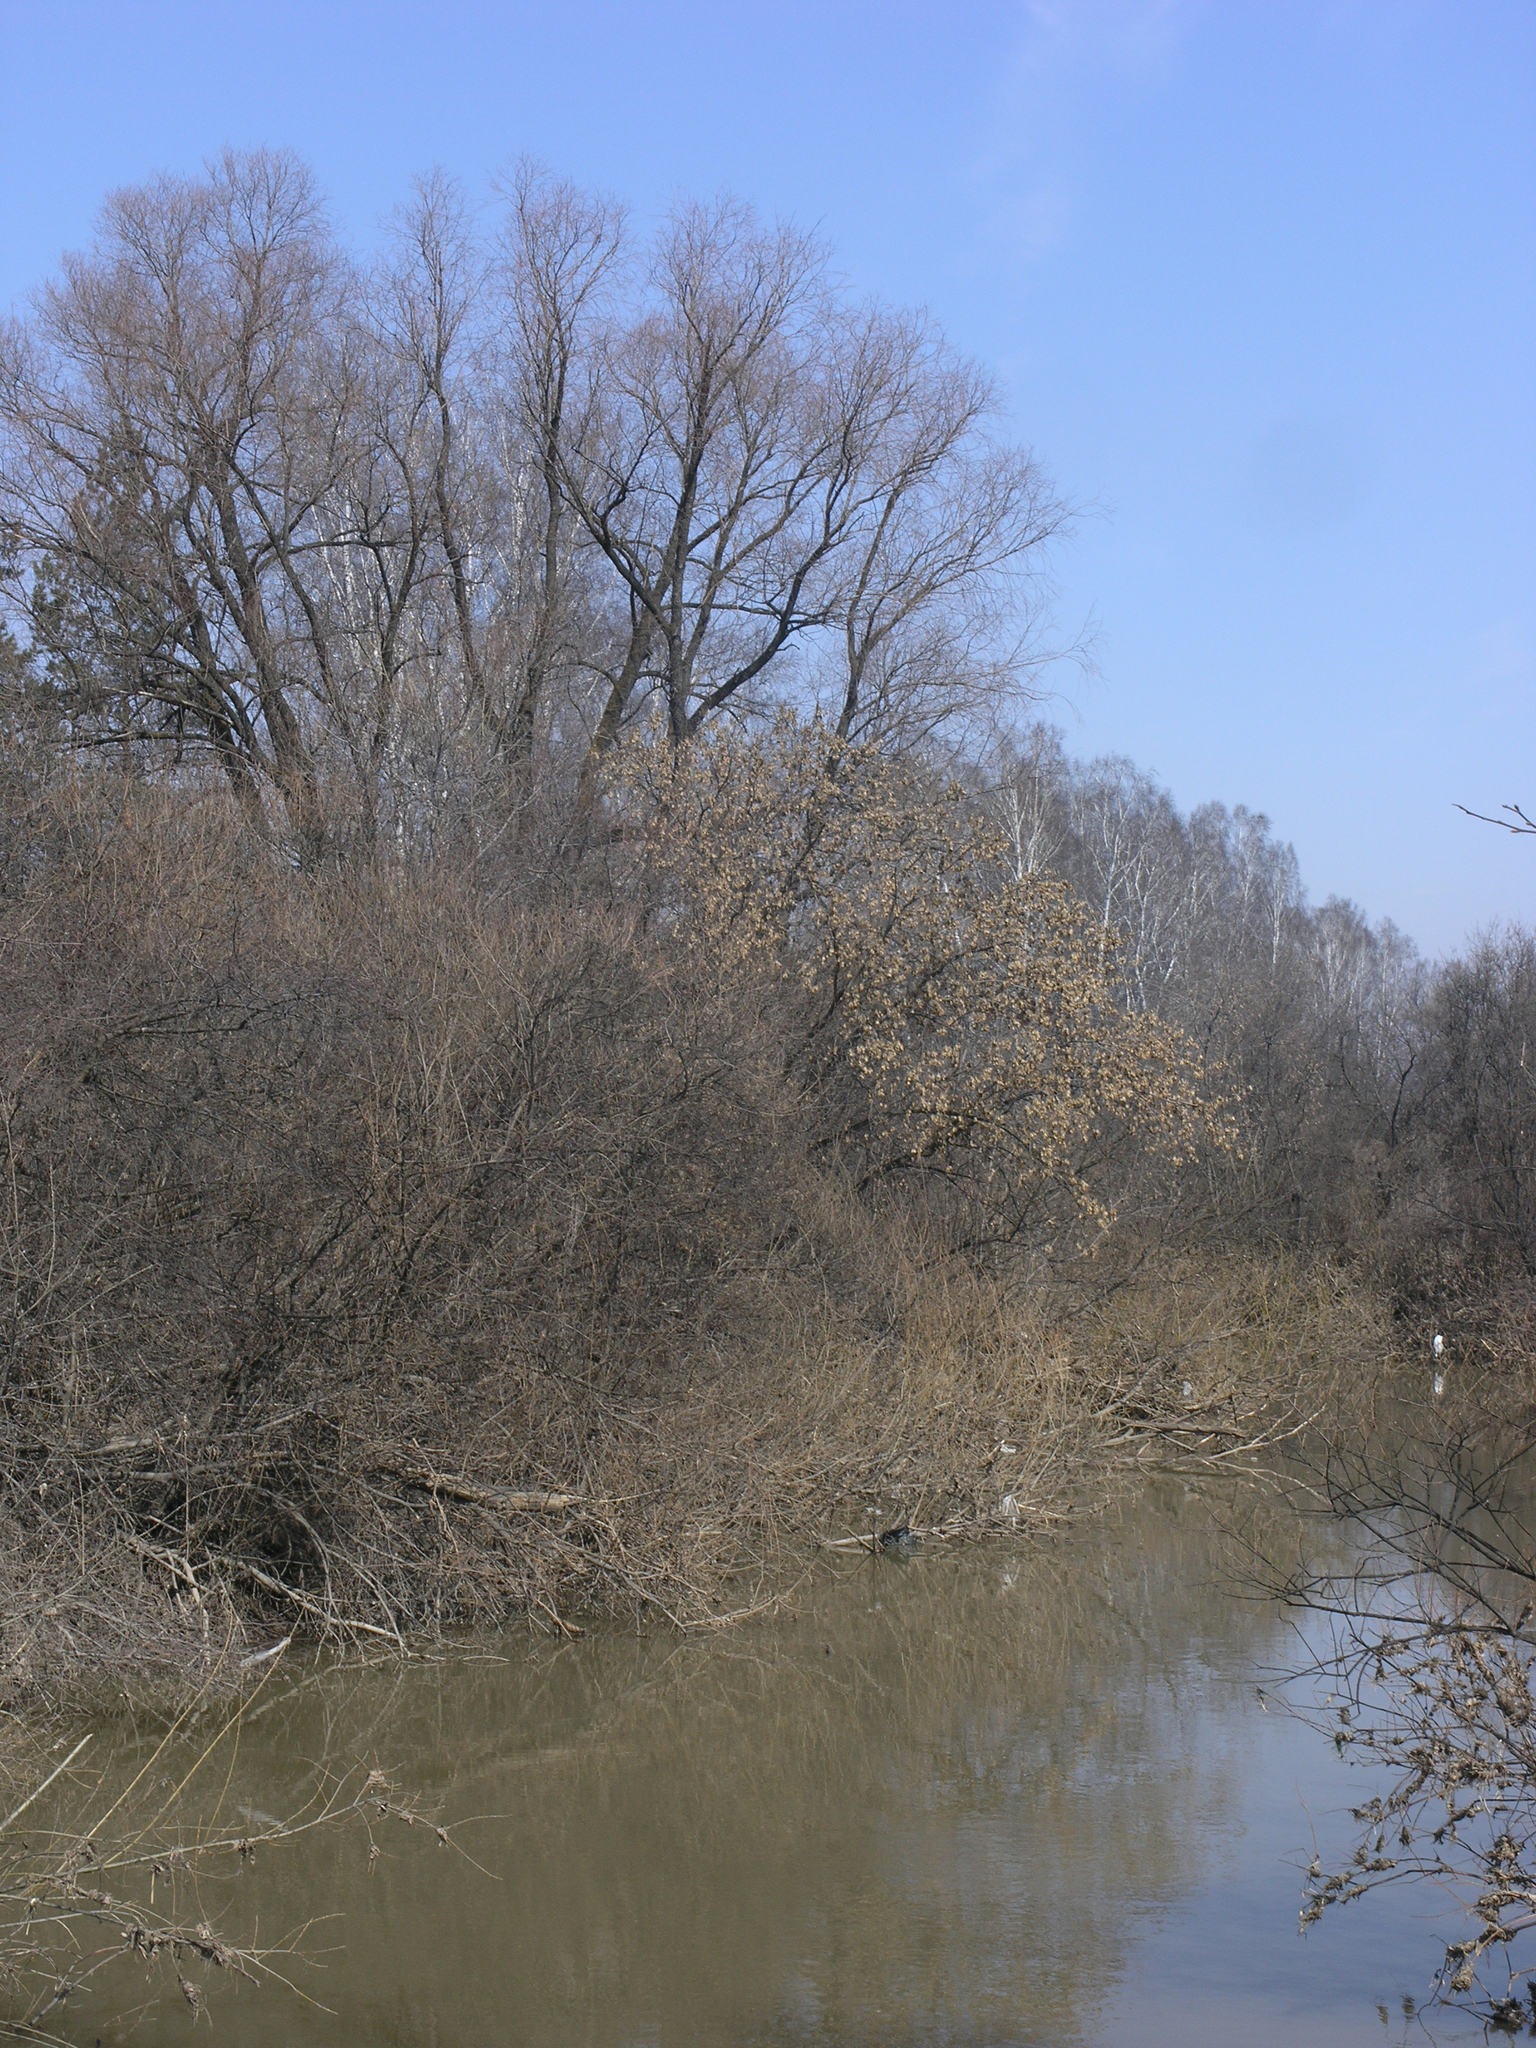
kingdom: Plantae
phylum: Tracheophyta
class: Magnoliopsida
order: Malpighiales
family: Salicaceae
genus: Salix
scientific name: Salix alba
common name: White willow
